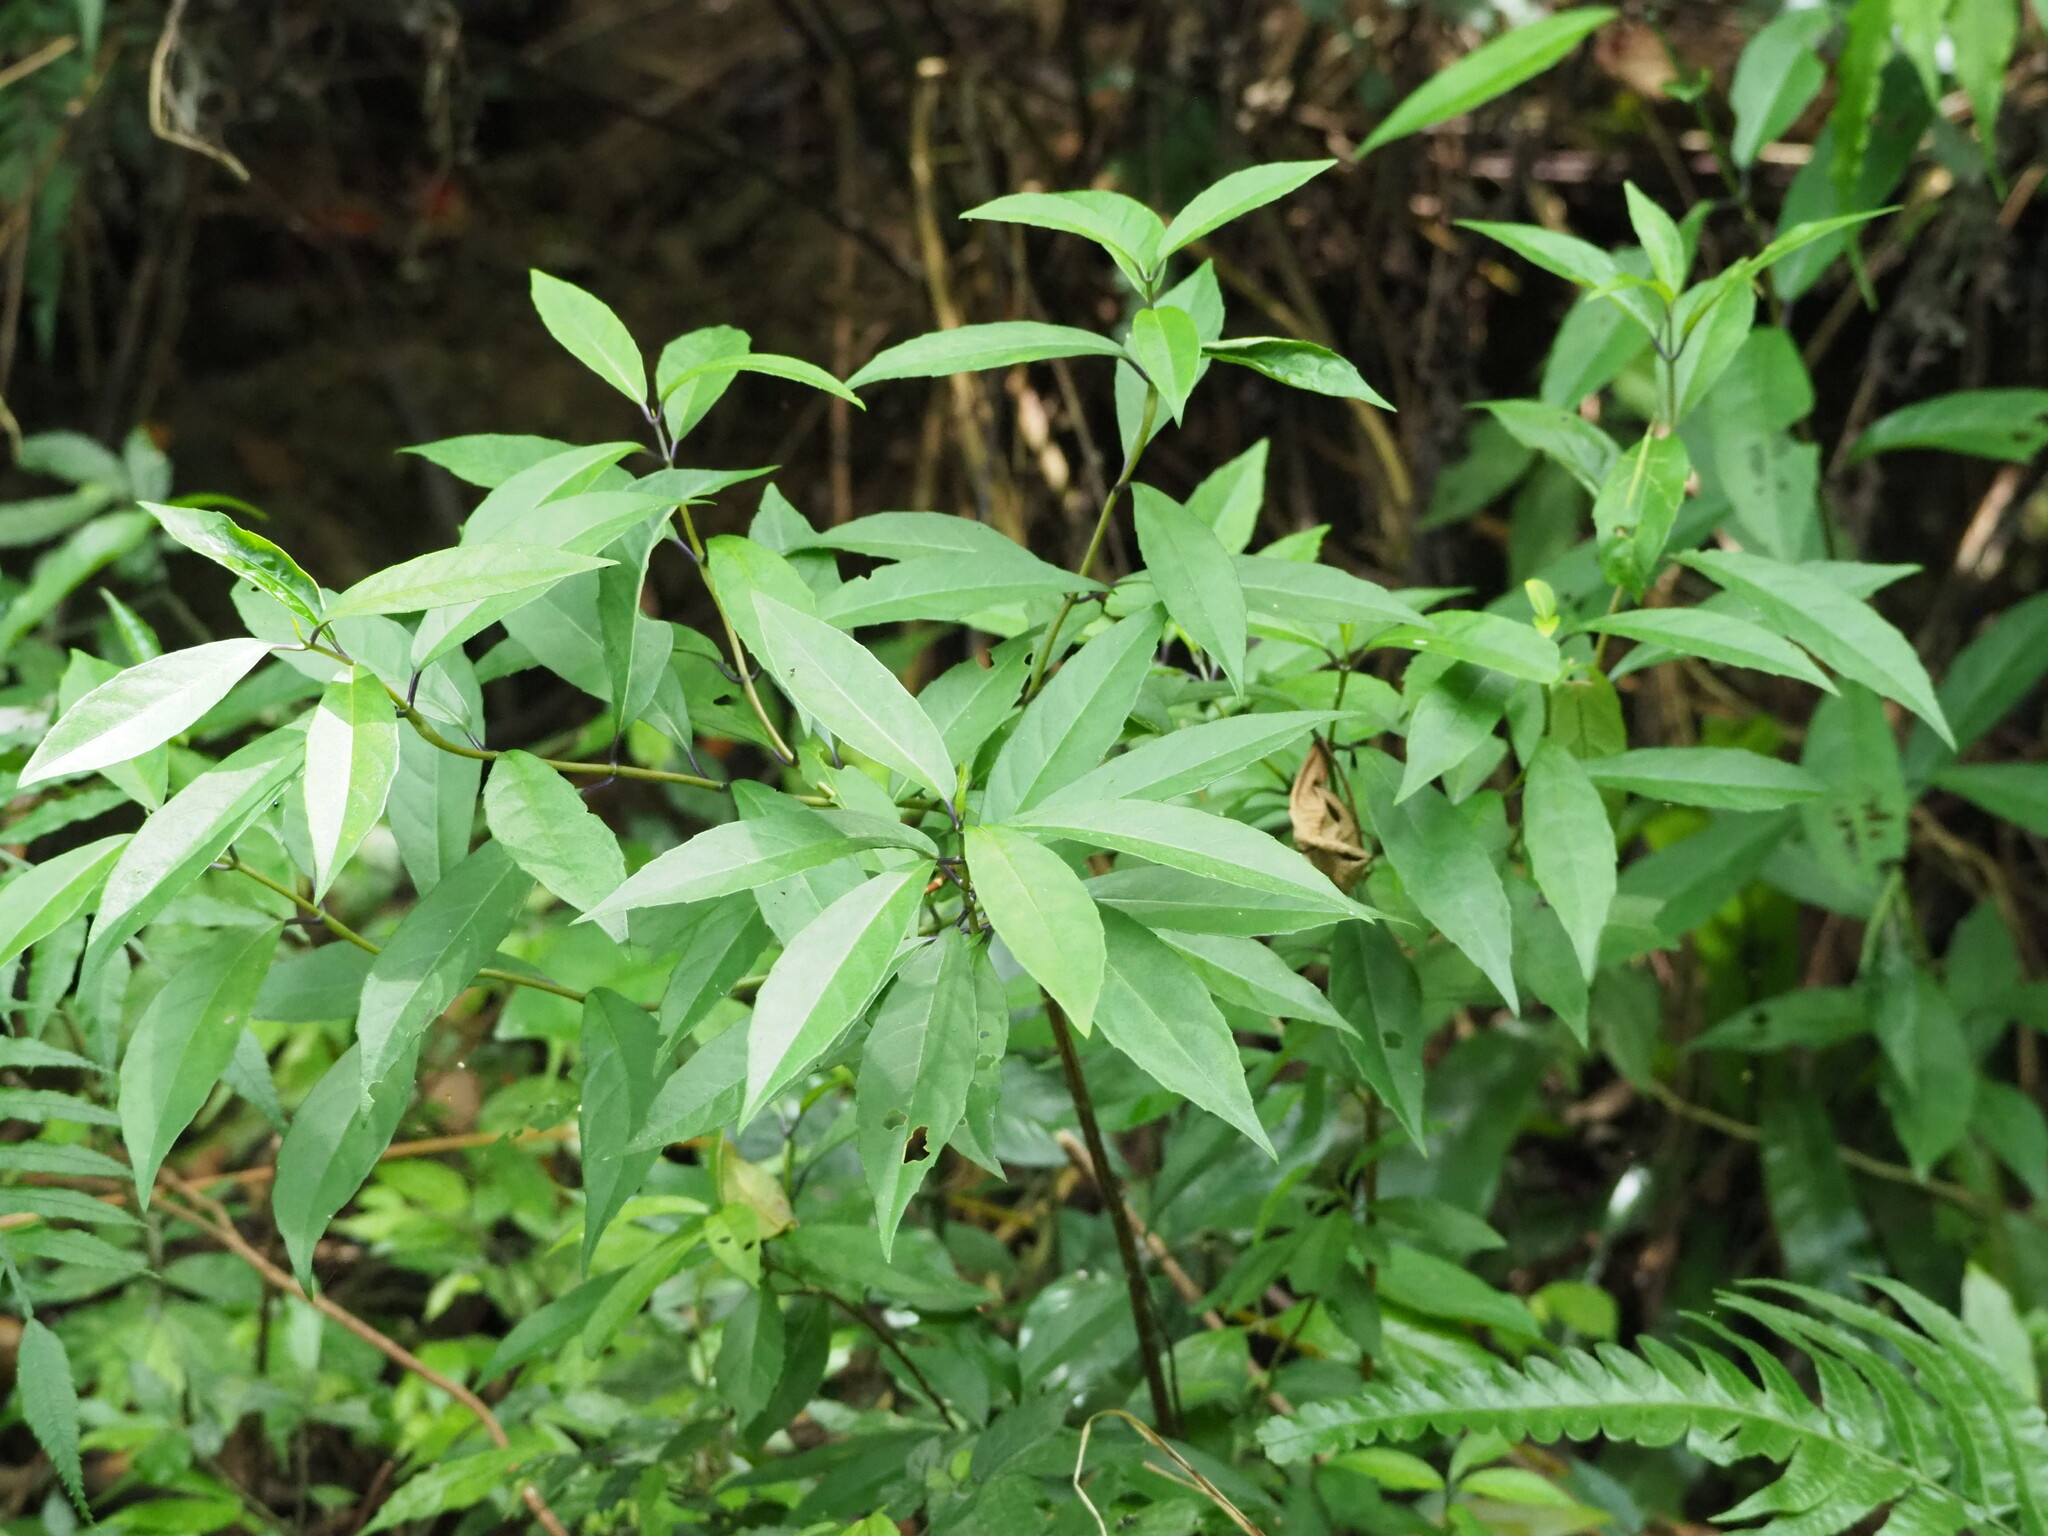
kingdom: Plantae
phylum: Tracheophyta
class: Magnoliopsida
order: Cornales
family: Hydrangeaceae
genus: Hydrangea
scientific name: Hydrangea chinensis
